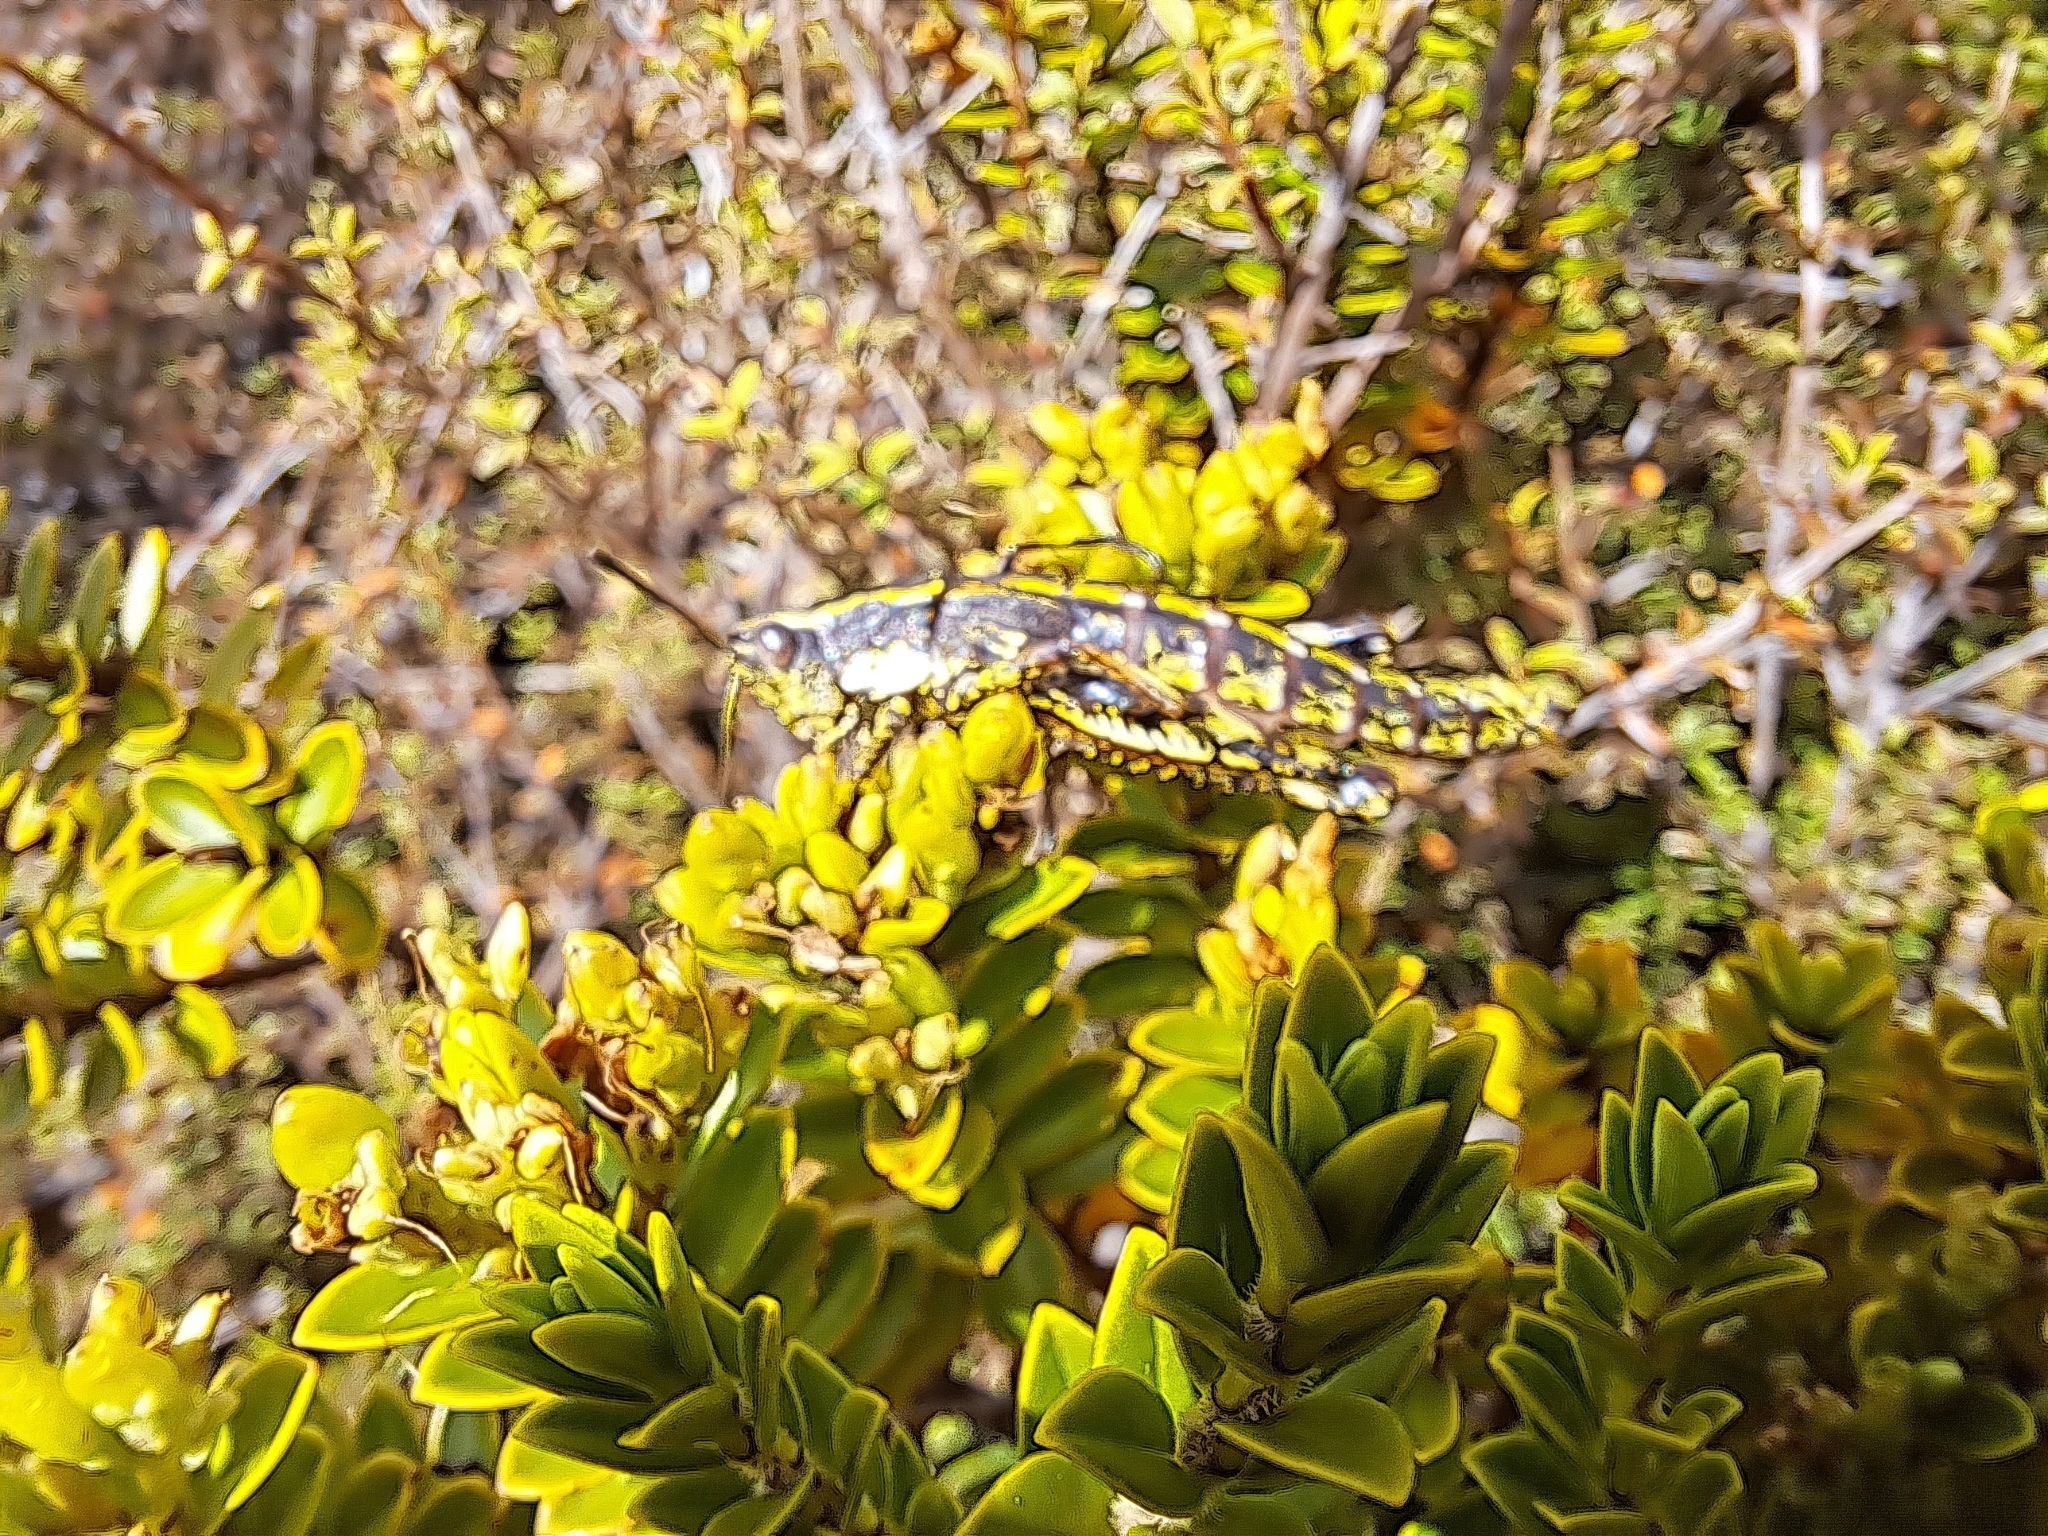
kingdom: Animalia
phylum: Arthropoda
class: Insecta
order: Orthoptera
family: Acrididae
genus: Sigaus
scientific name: Sigaus piliferus
